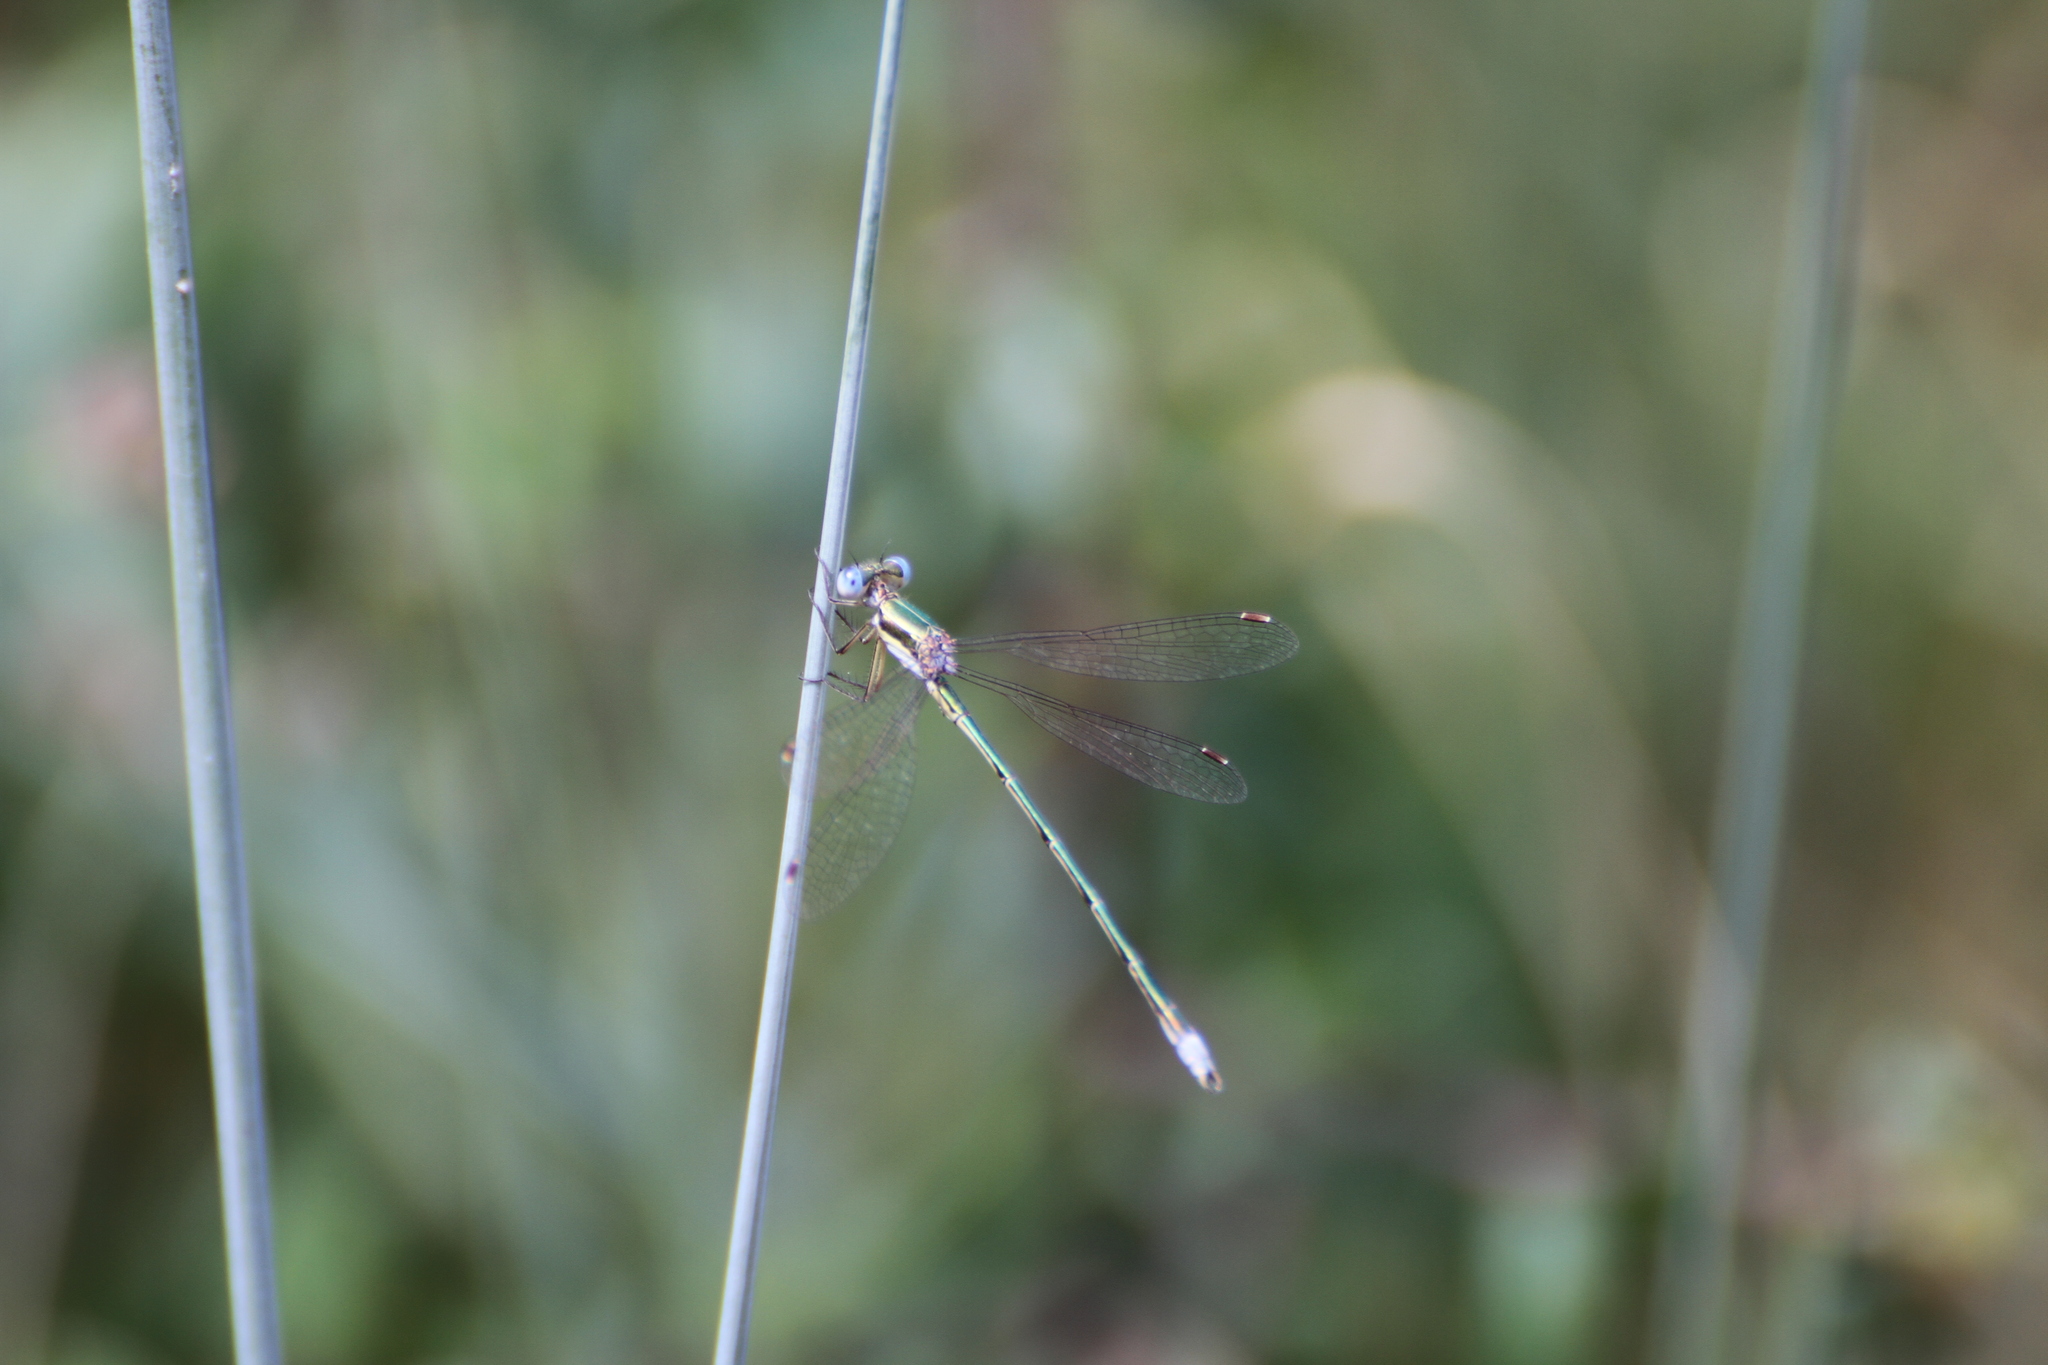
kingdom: Animalia
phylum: Arthropoda
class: Insecta
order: Odonata
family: Lestidae
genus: Lestes
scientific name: Lestes virens
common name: Small emerald spreadwing
